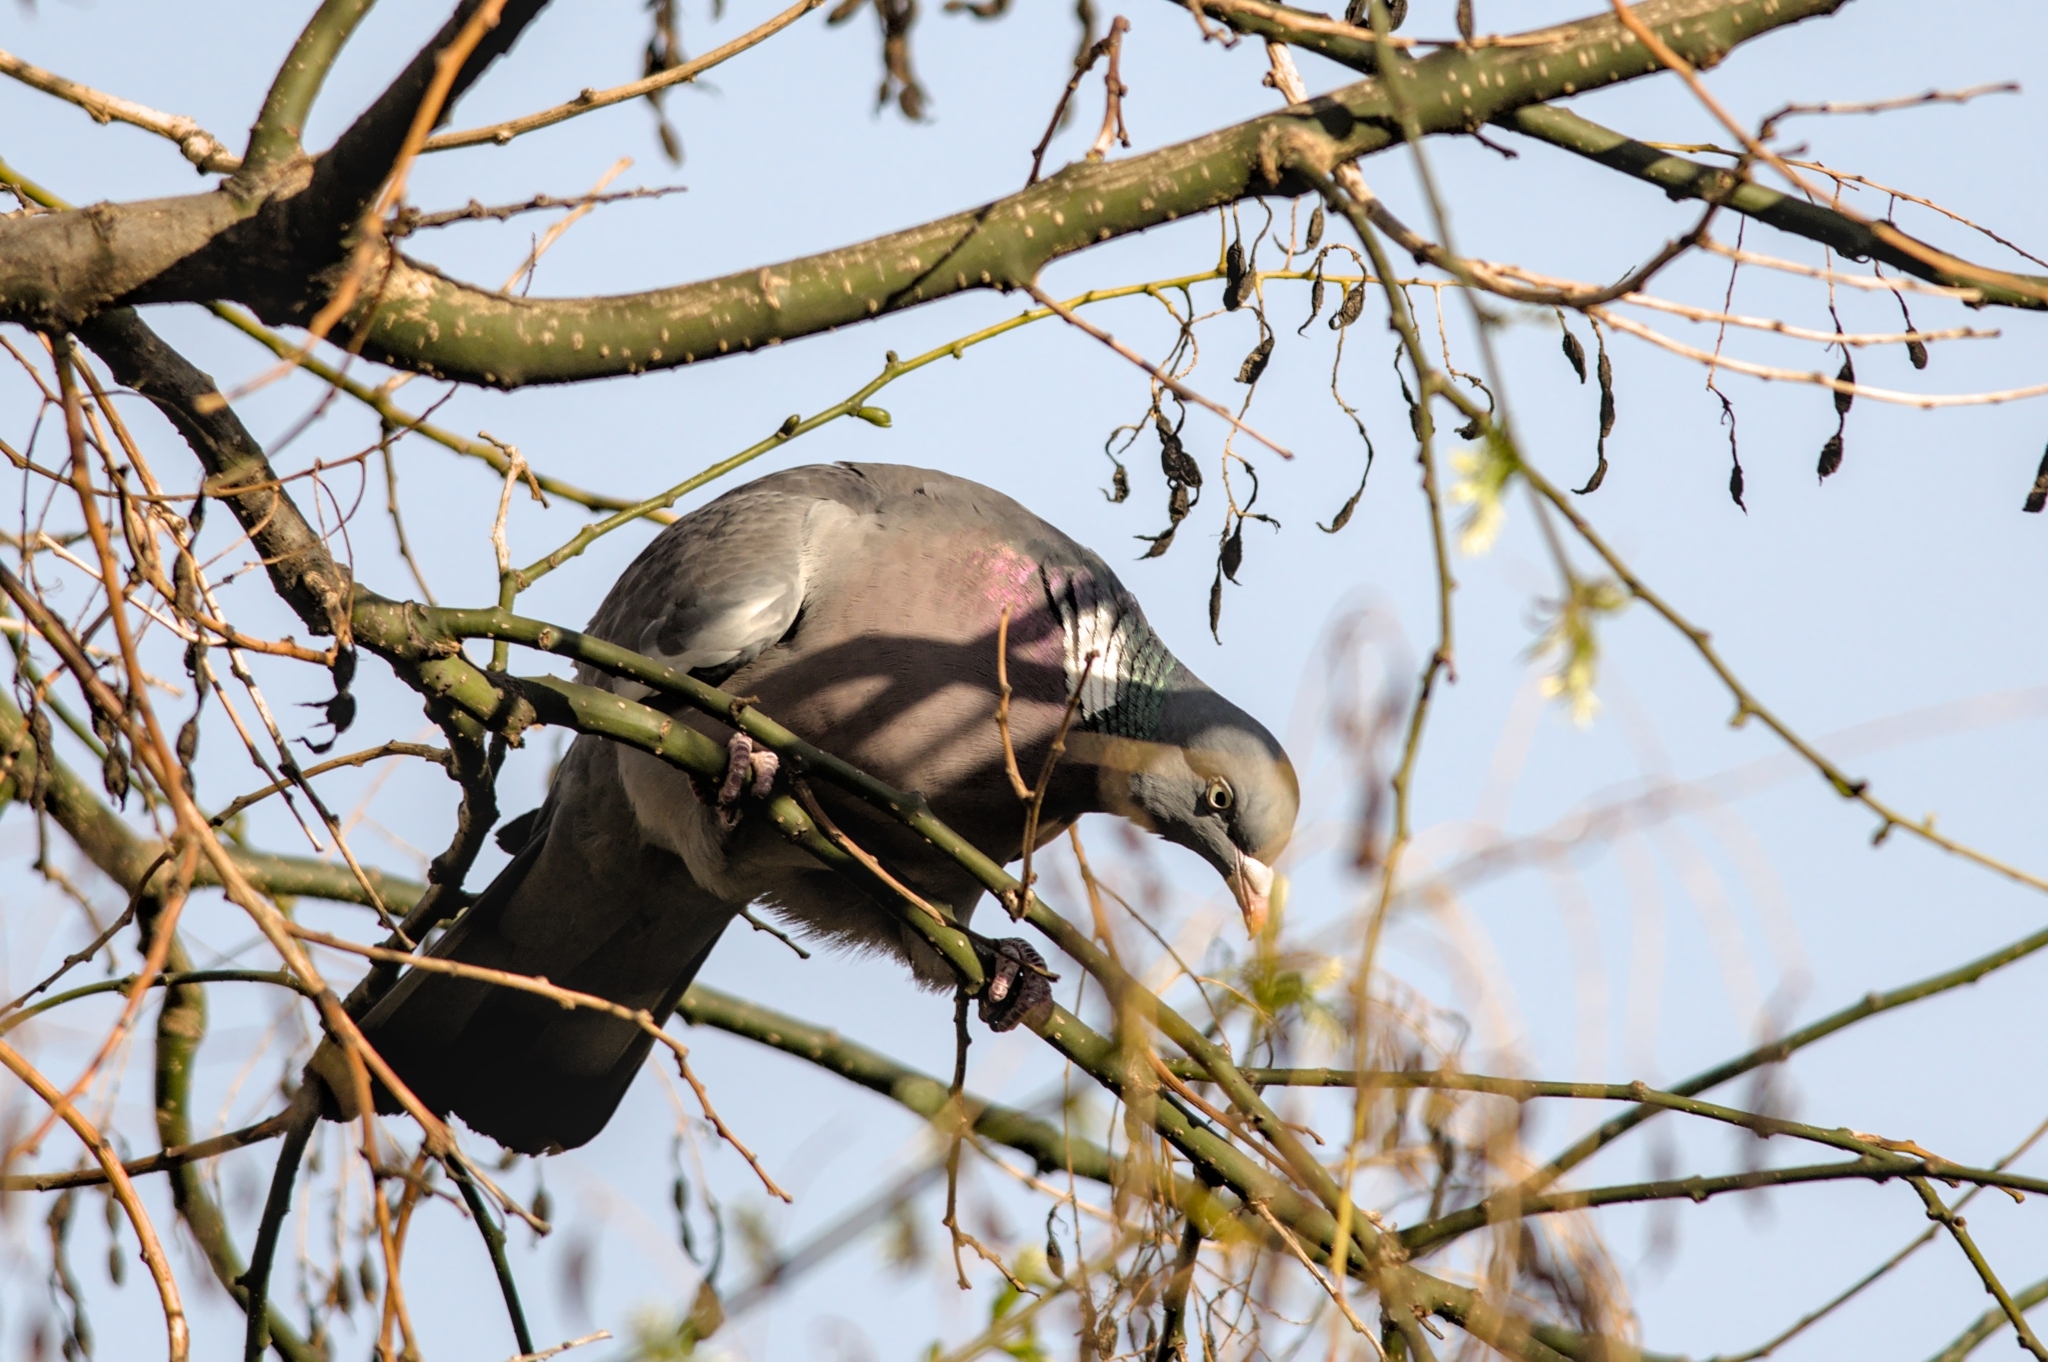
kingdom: Animalia
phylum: Chordata
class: Aves
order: Columbiformes
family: Columbidae
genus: Columba
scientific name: Columba palumbus
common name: Common wood pigeon
